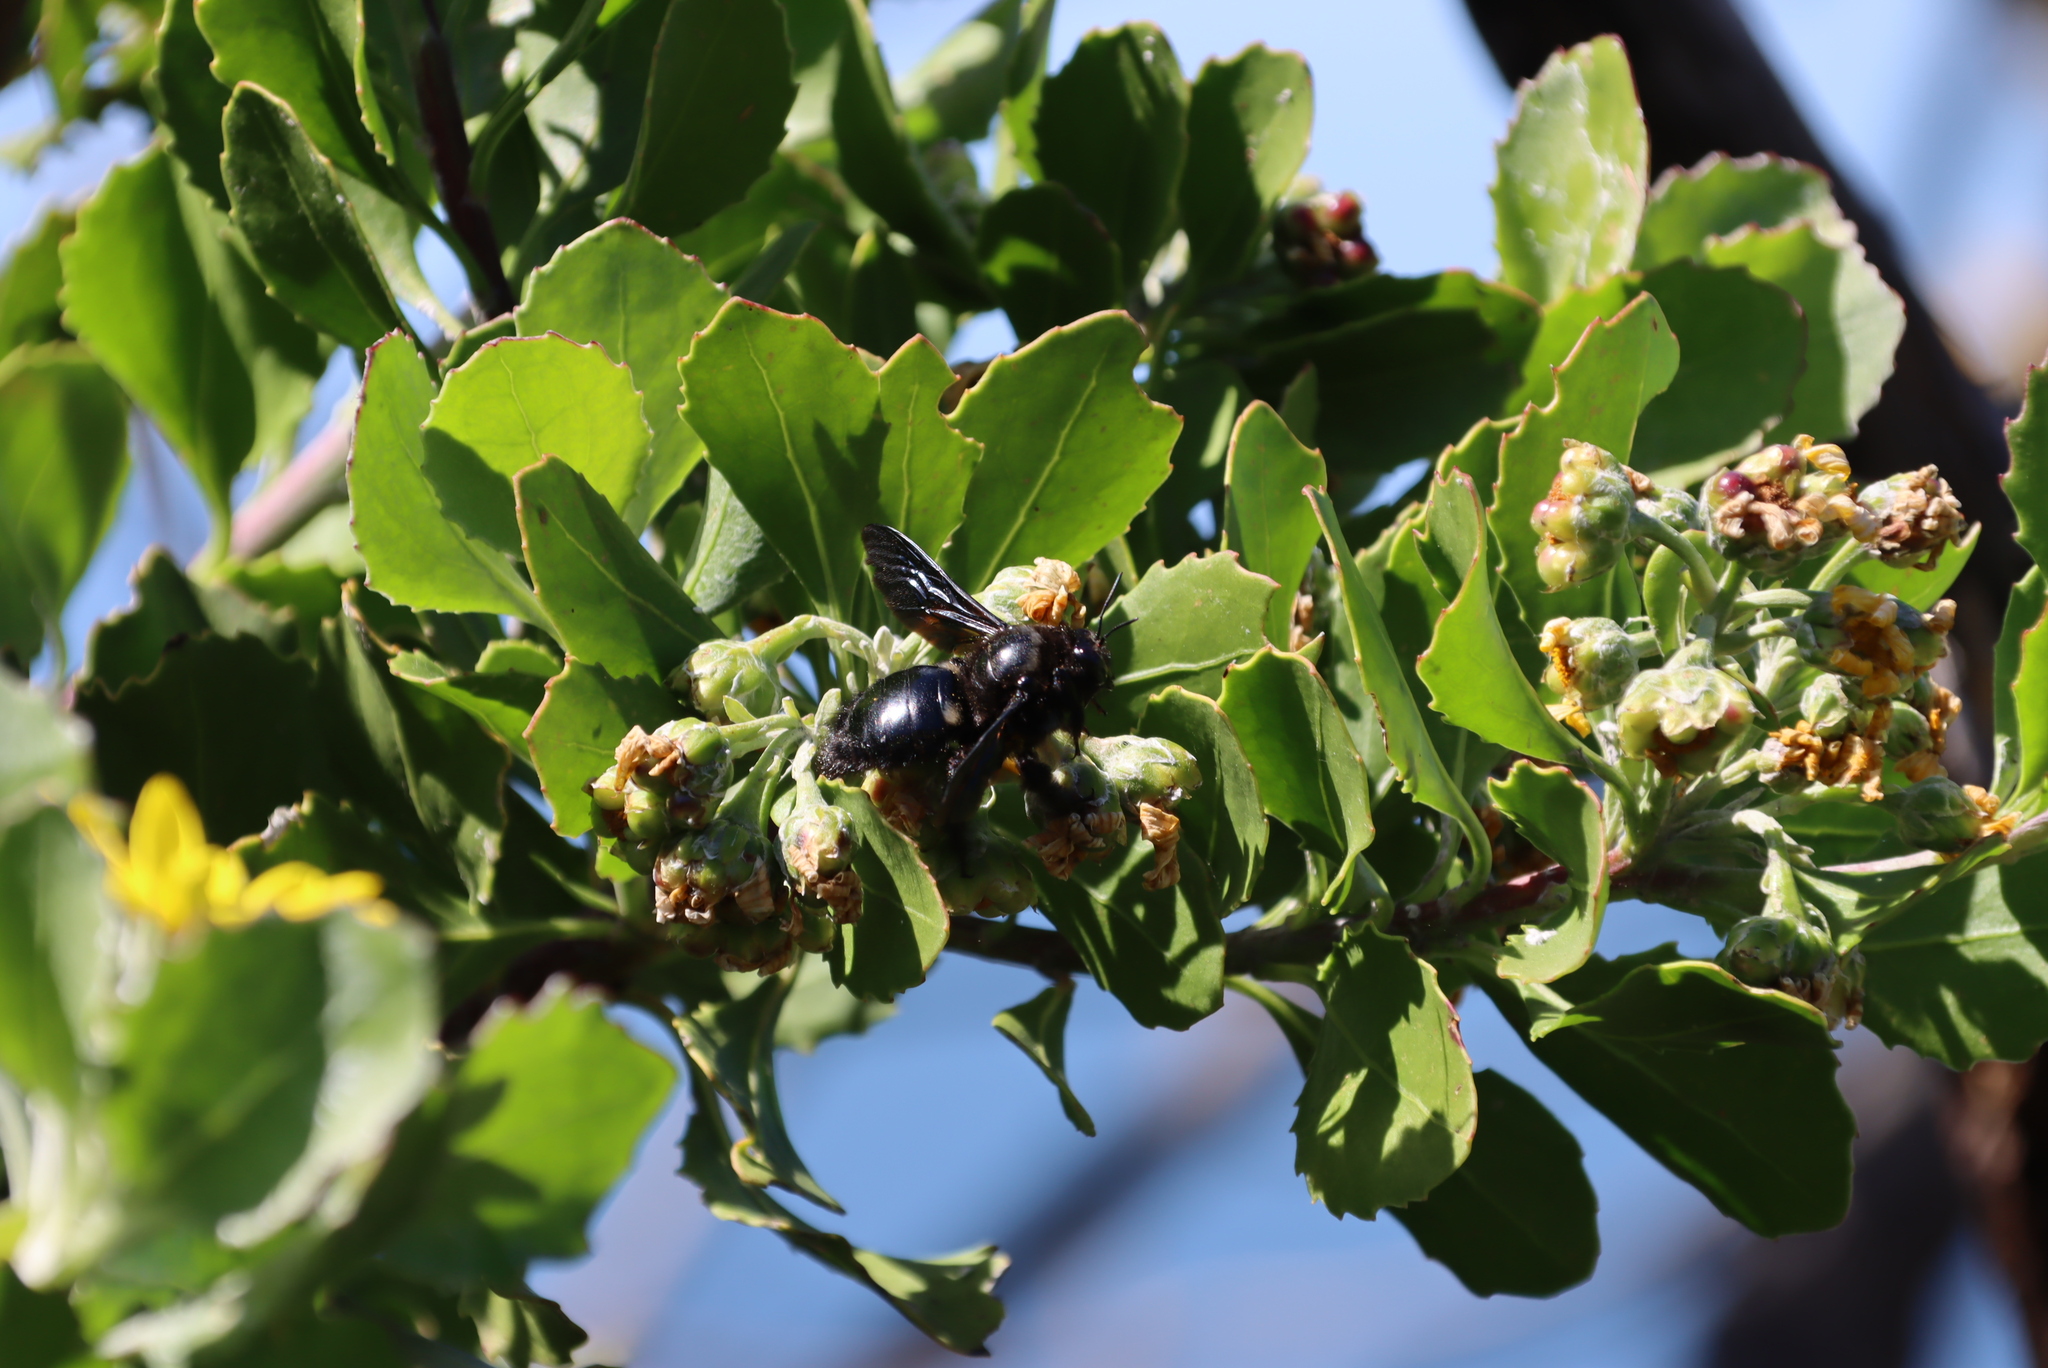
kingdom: Animalia
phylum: Arthropoda
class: Insecta
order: Hymenoptera
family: Apidae
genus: Xylocopa
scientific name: Xylocopa capitata
